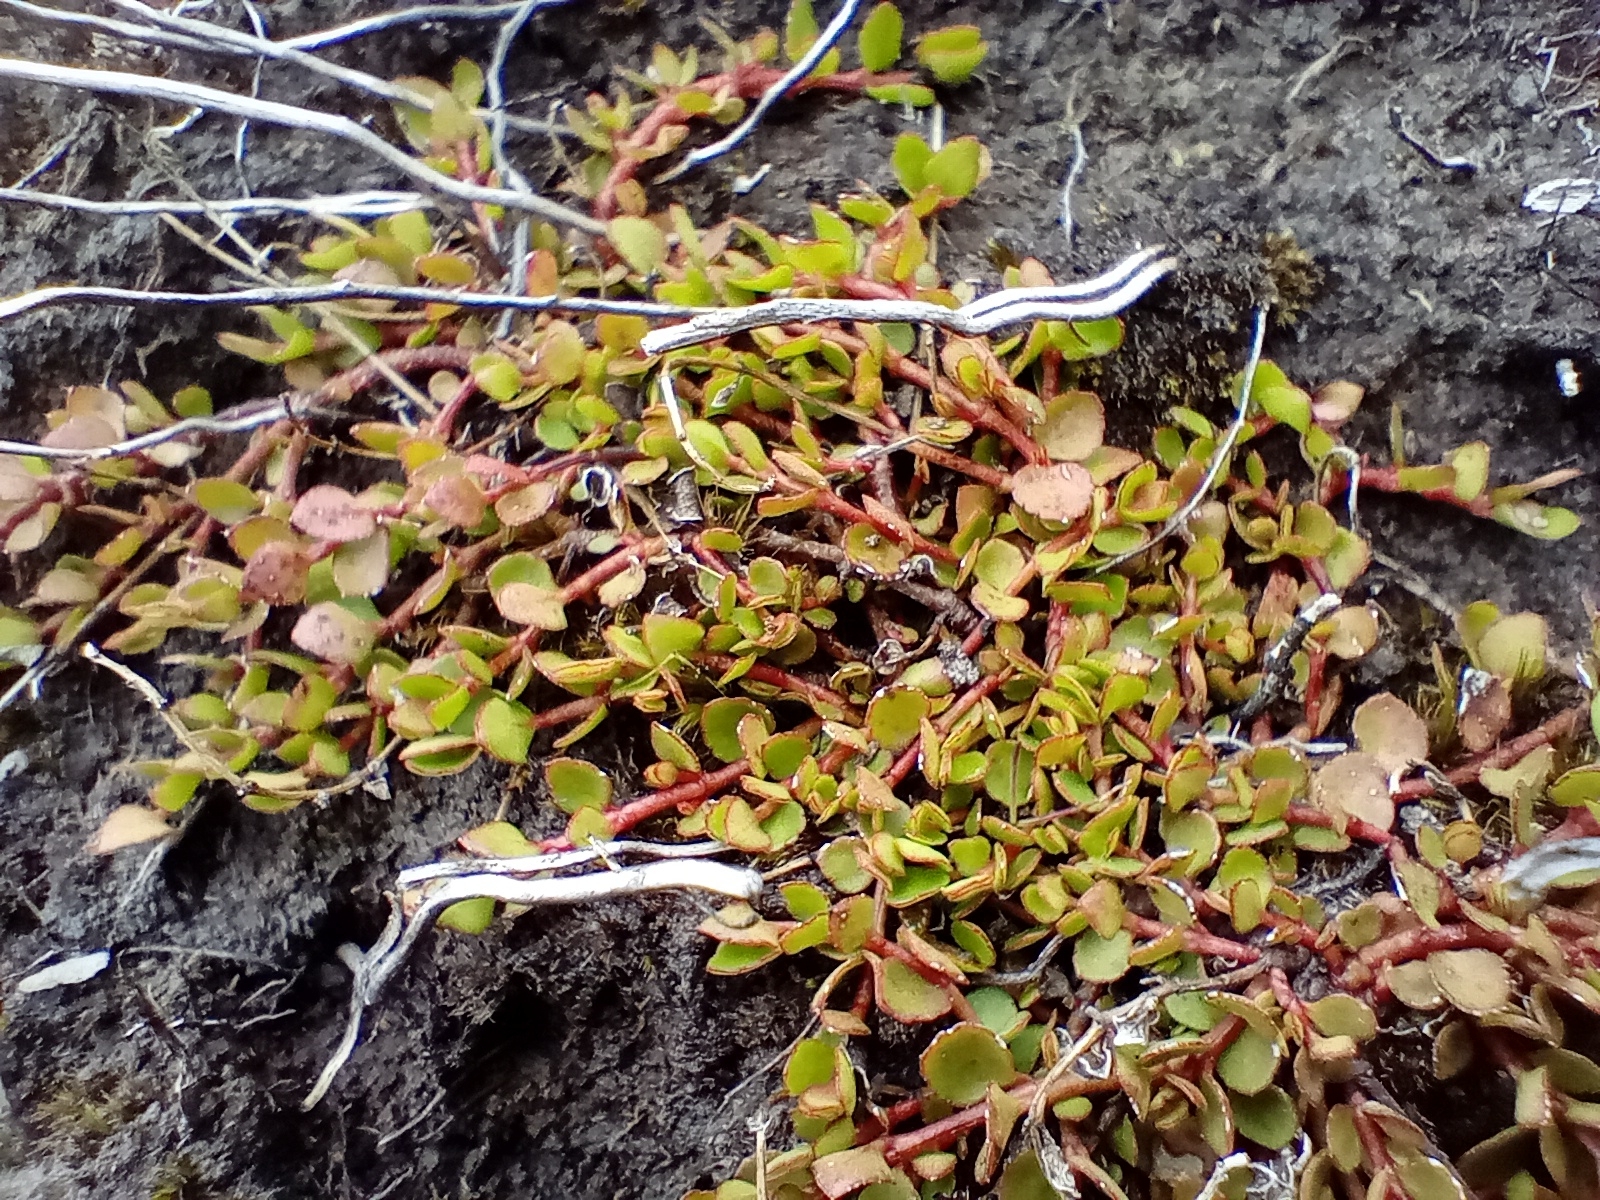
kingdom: Plantae
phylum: Tracheophyta
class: Magnoliopsida
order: Saxifragales
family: Haloragaceae
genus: Gonocarpus
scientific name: Gonocarpus micranthus
